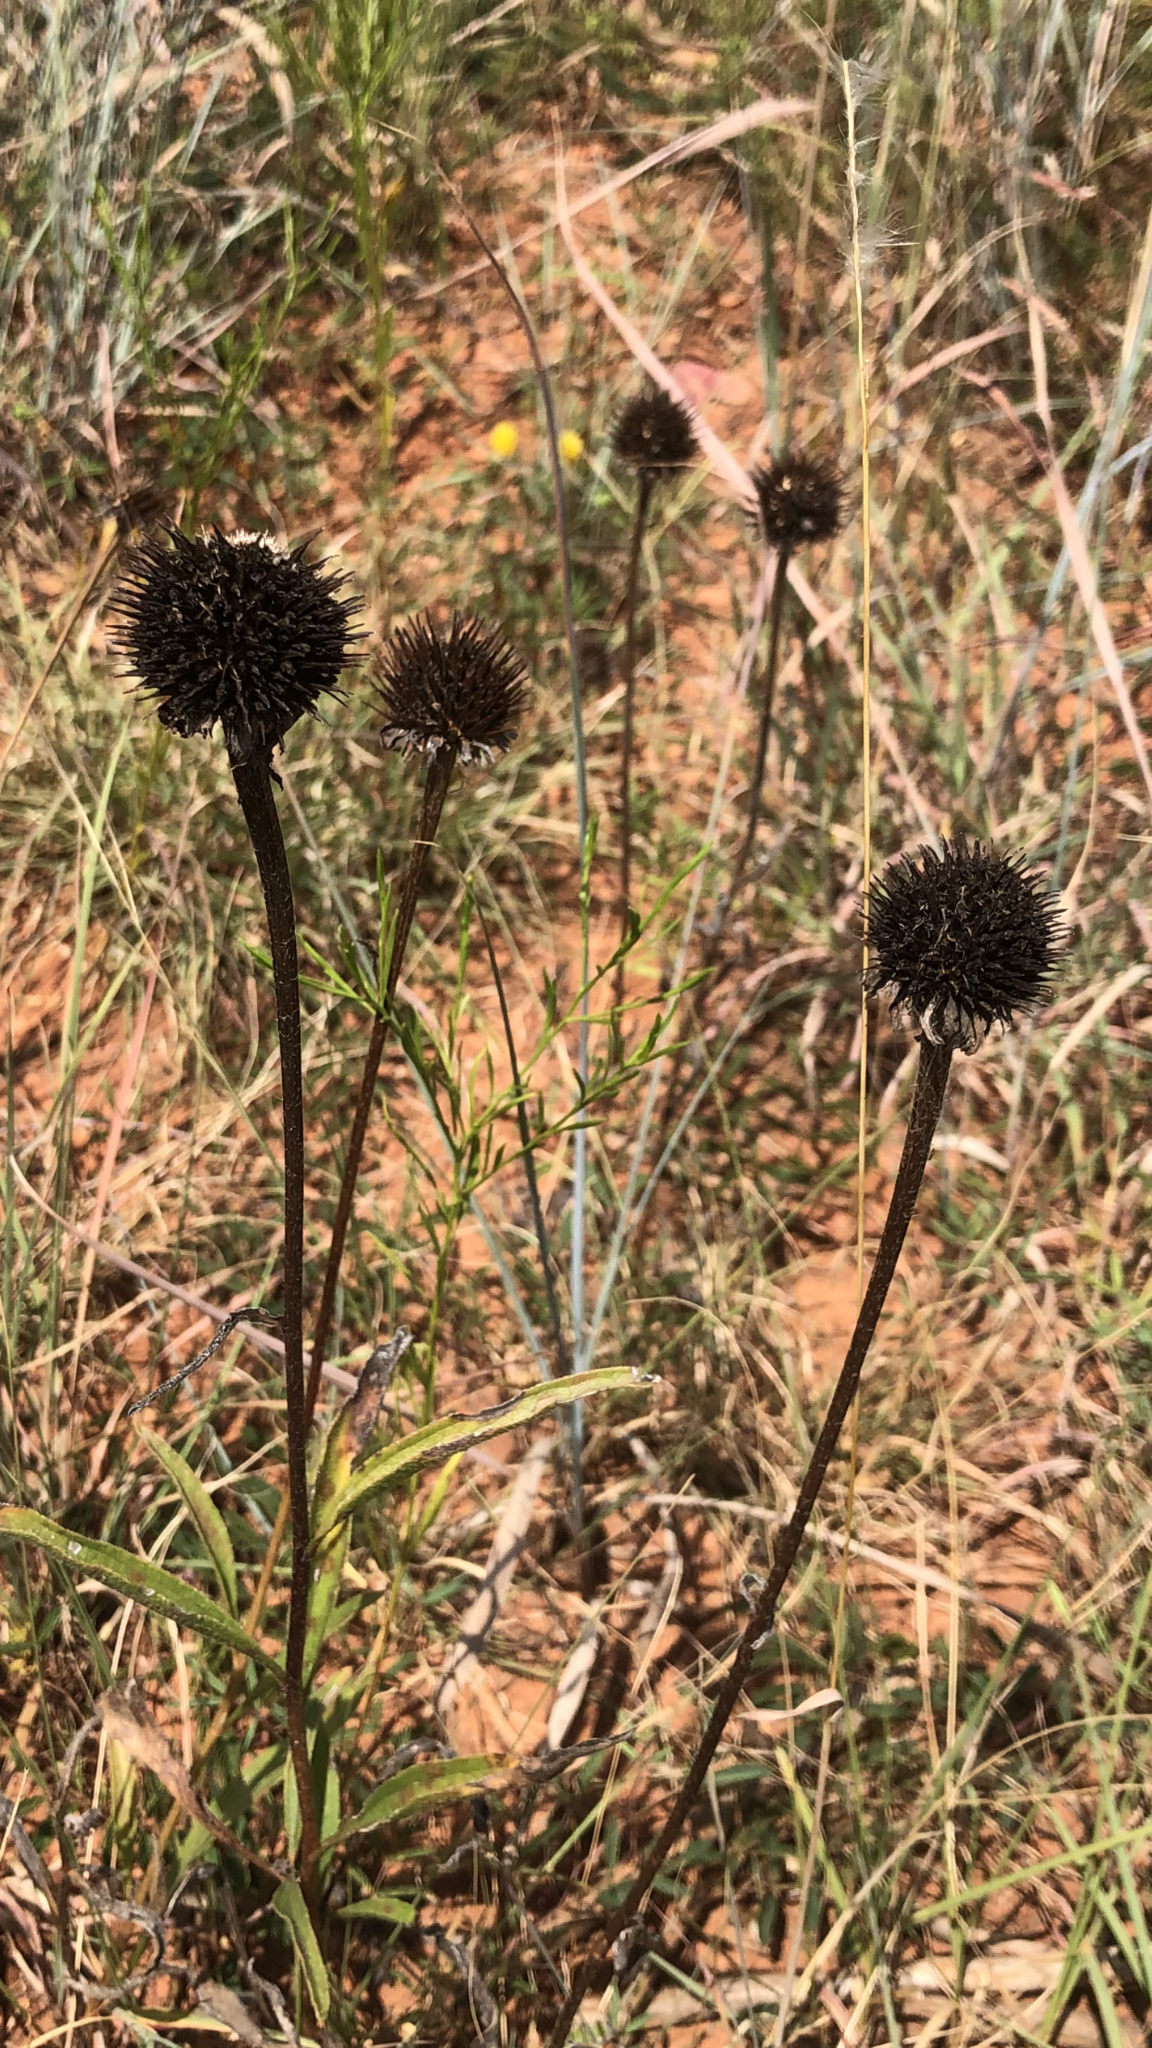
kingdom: Plantae
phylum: Tracheophyta
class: Magnoliopsida
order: Asterales
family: Asteraceae
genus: Echinacea
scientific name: Echinacea angustifolia
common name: Black-sampson echinacea
